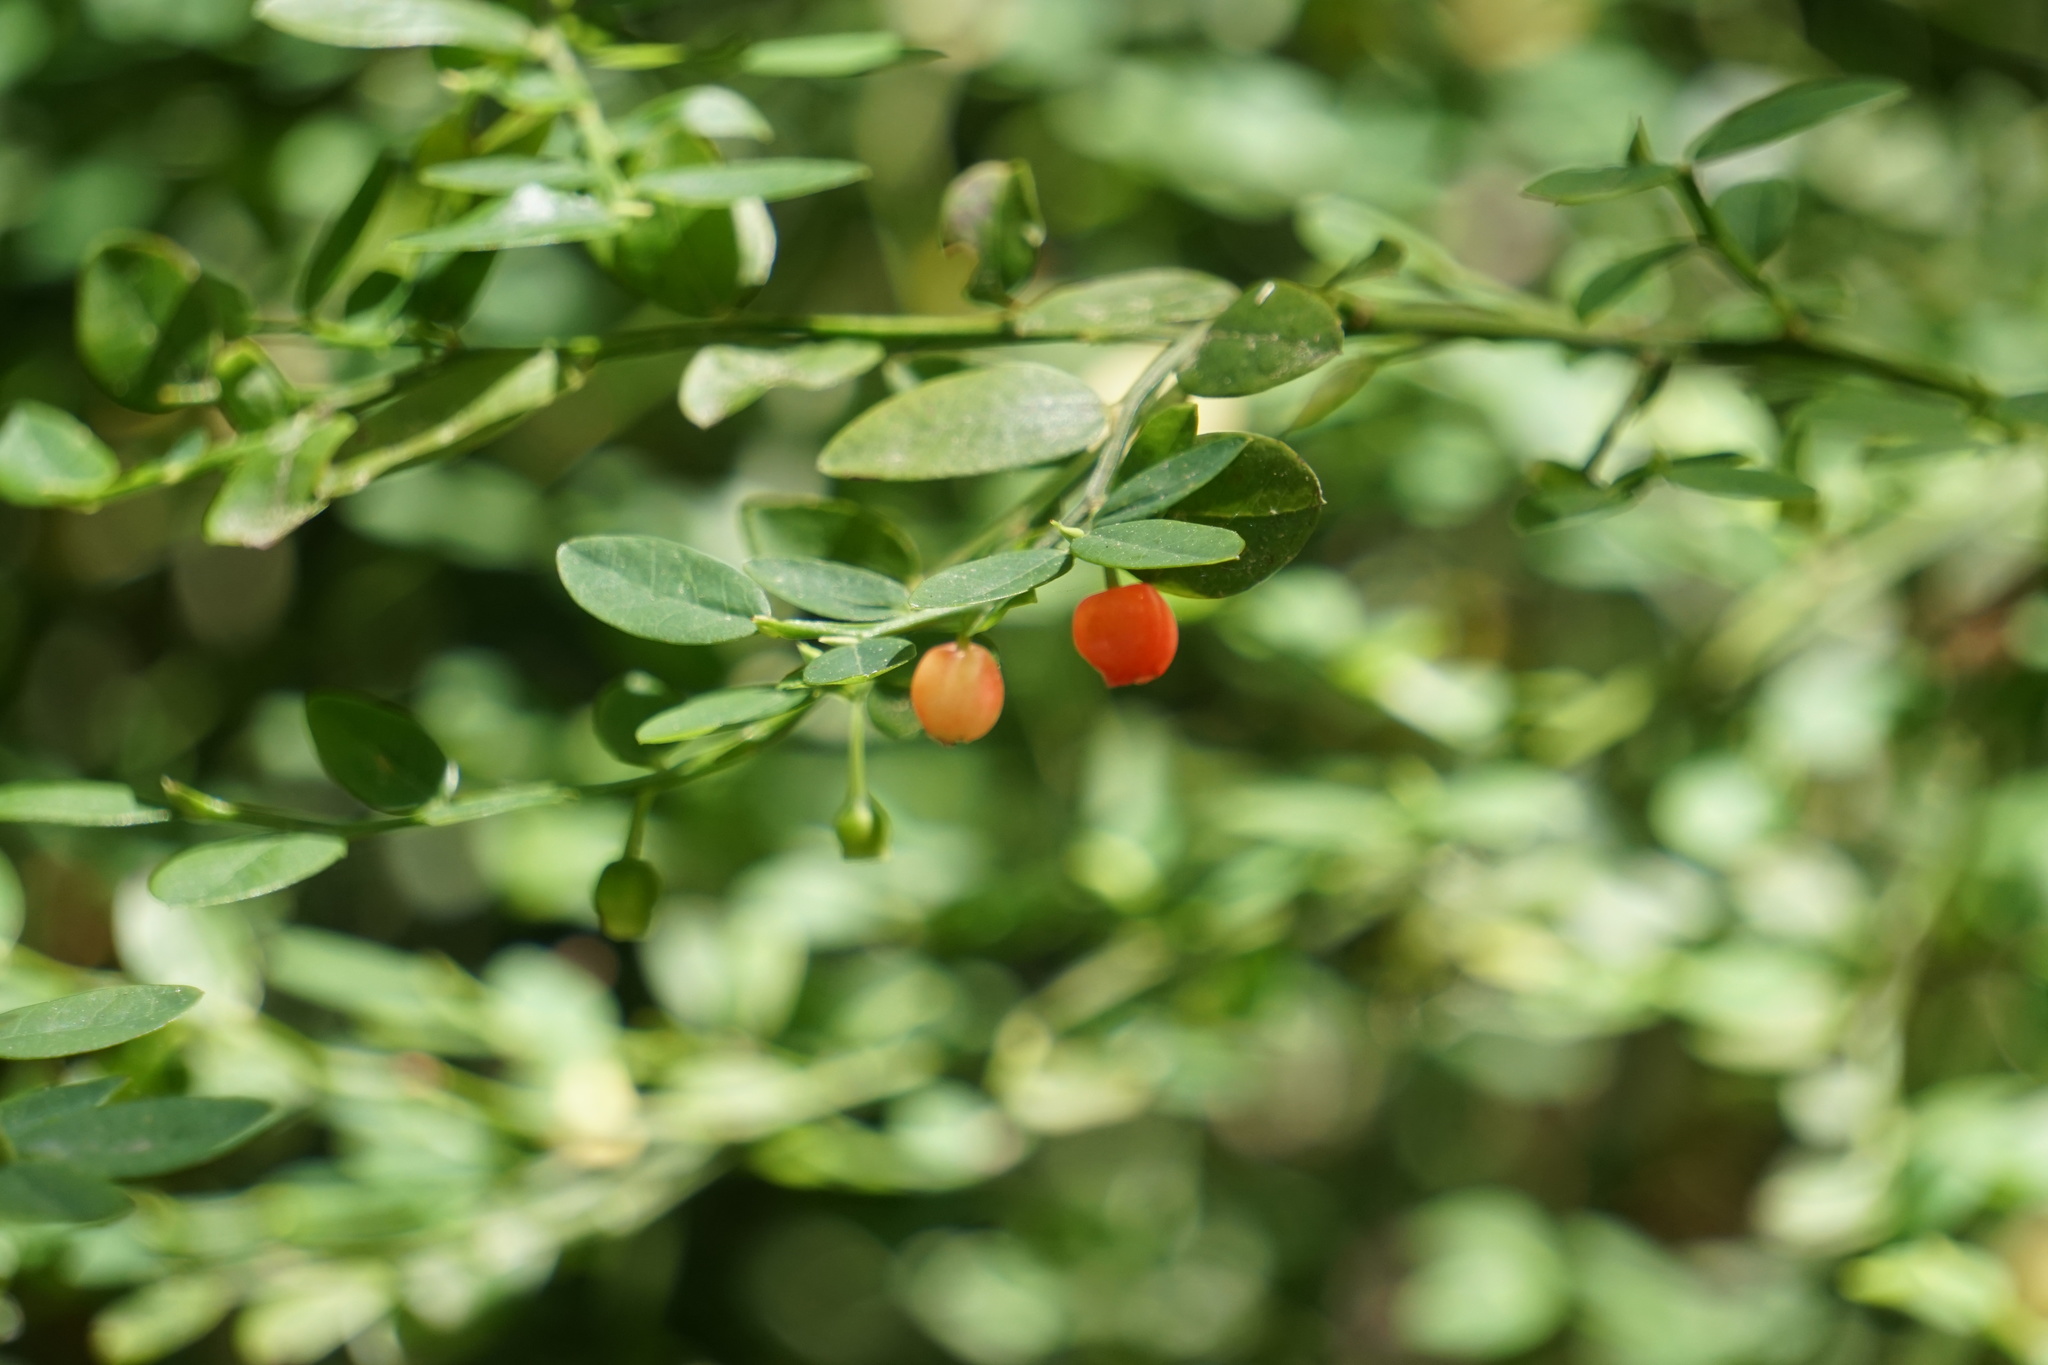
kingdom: Plantae
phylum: Tracheophyta
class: Magnoliopsida
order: Ericales
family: Ericaceae
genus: Vaccinium
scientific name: Vaccinium parvifolium
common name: Red-huckleberry
